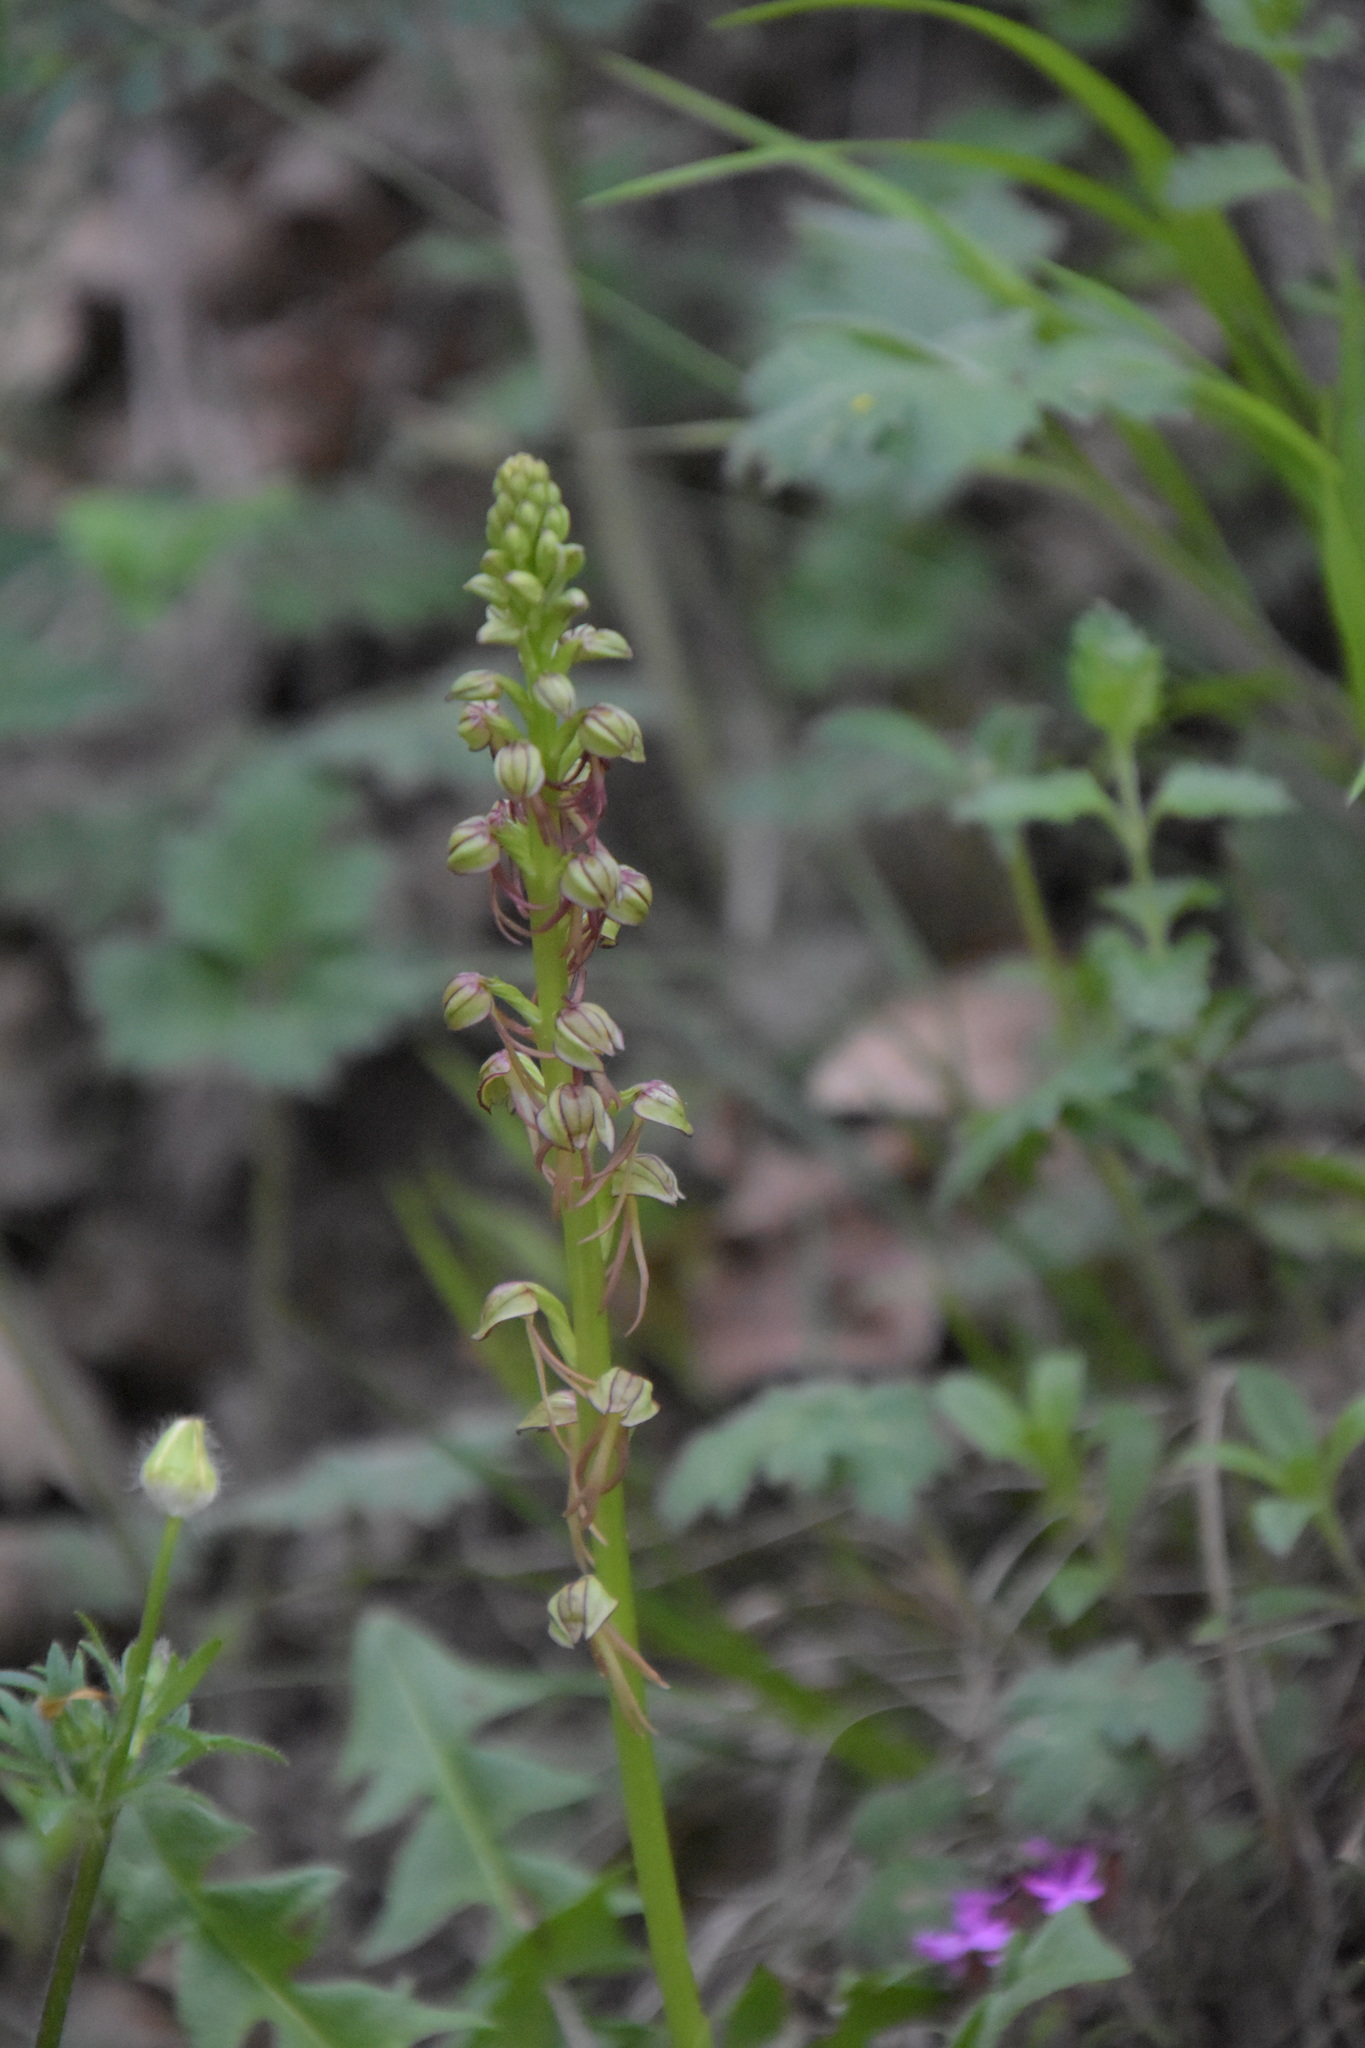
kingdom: Plantae
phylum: Tracheophyta
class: Liliopsida
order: Asparagales
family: Orchidaceae
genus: Orchis
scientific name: Orchis anthropophora
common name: Man orchid
